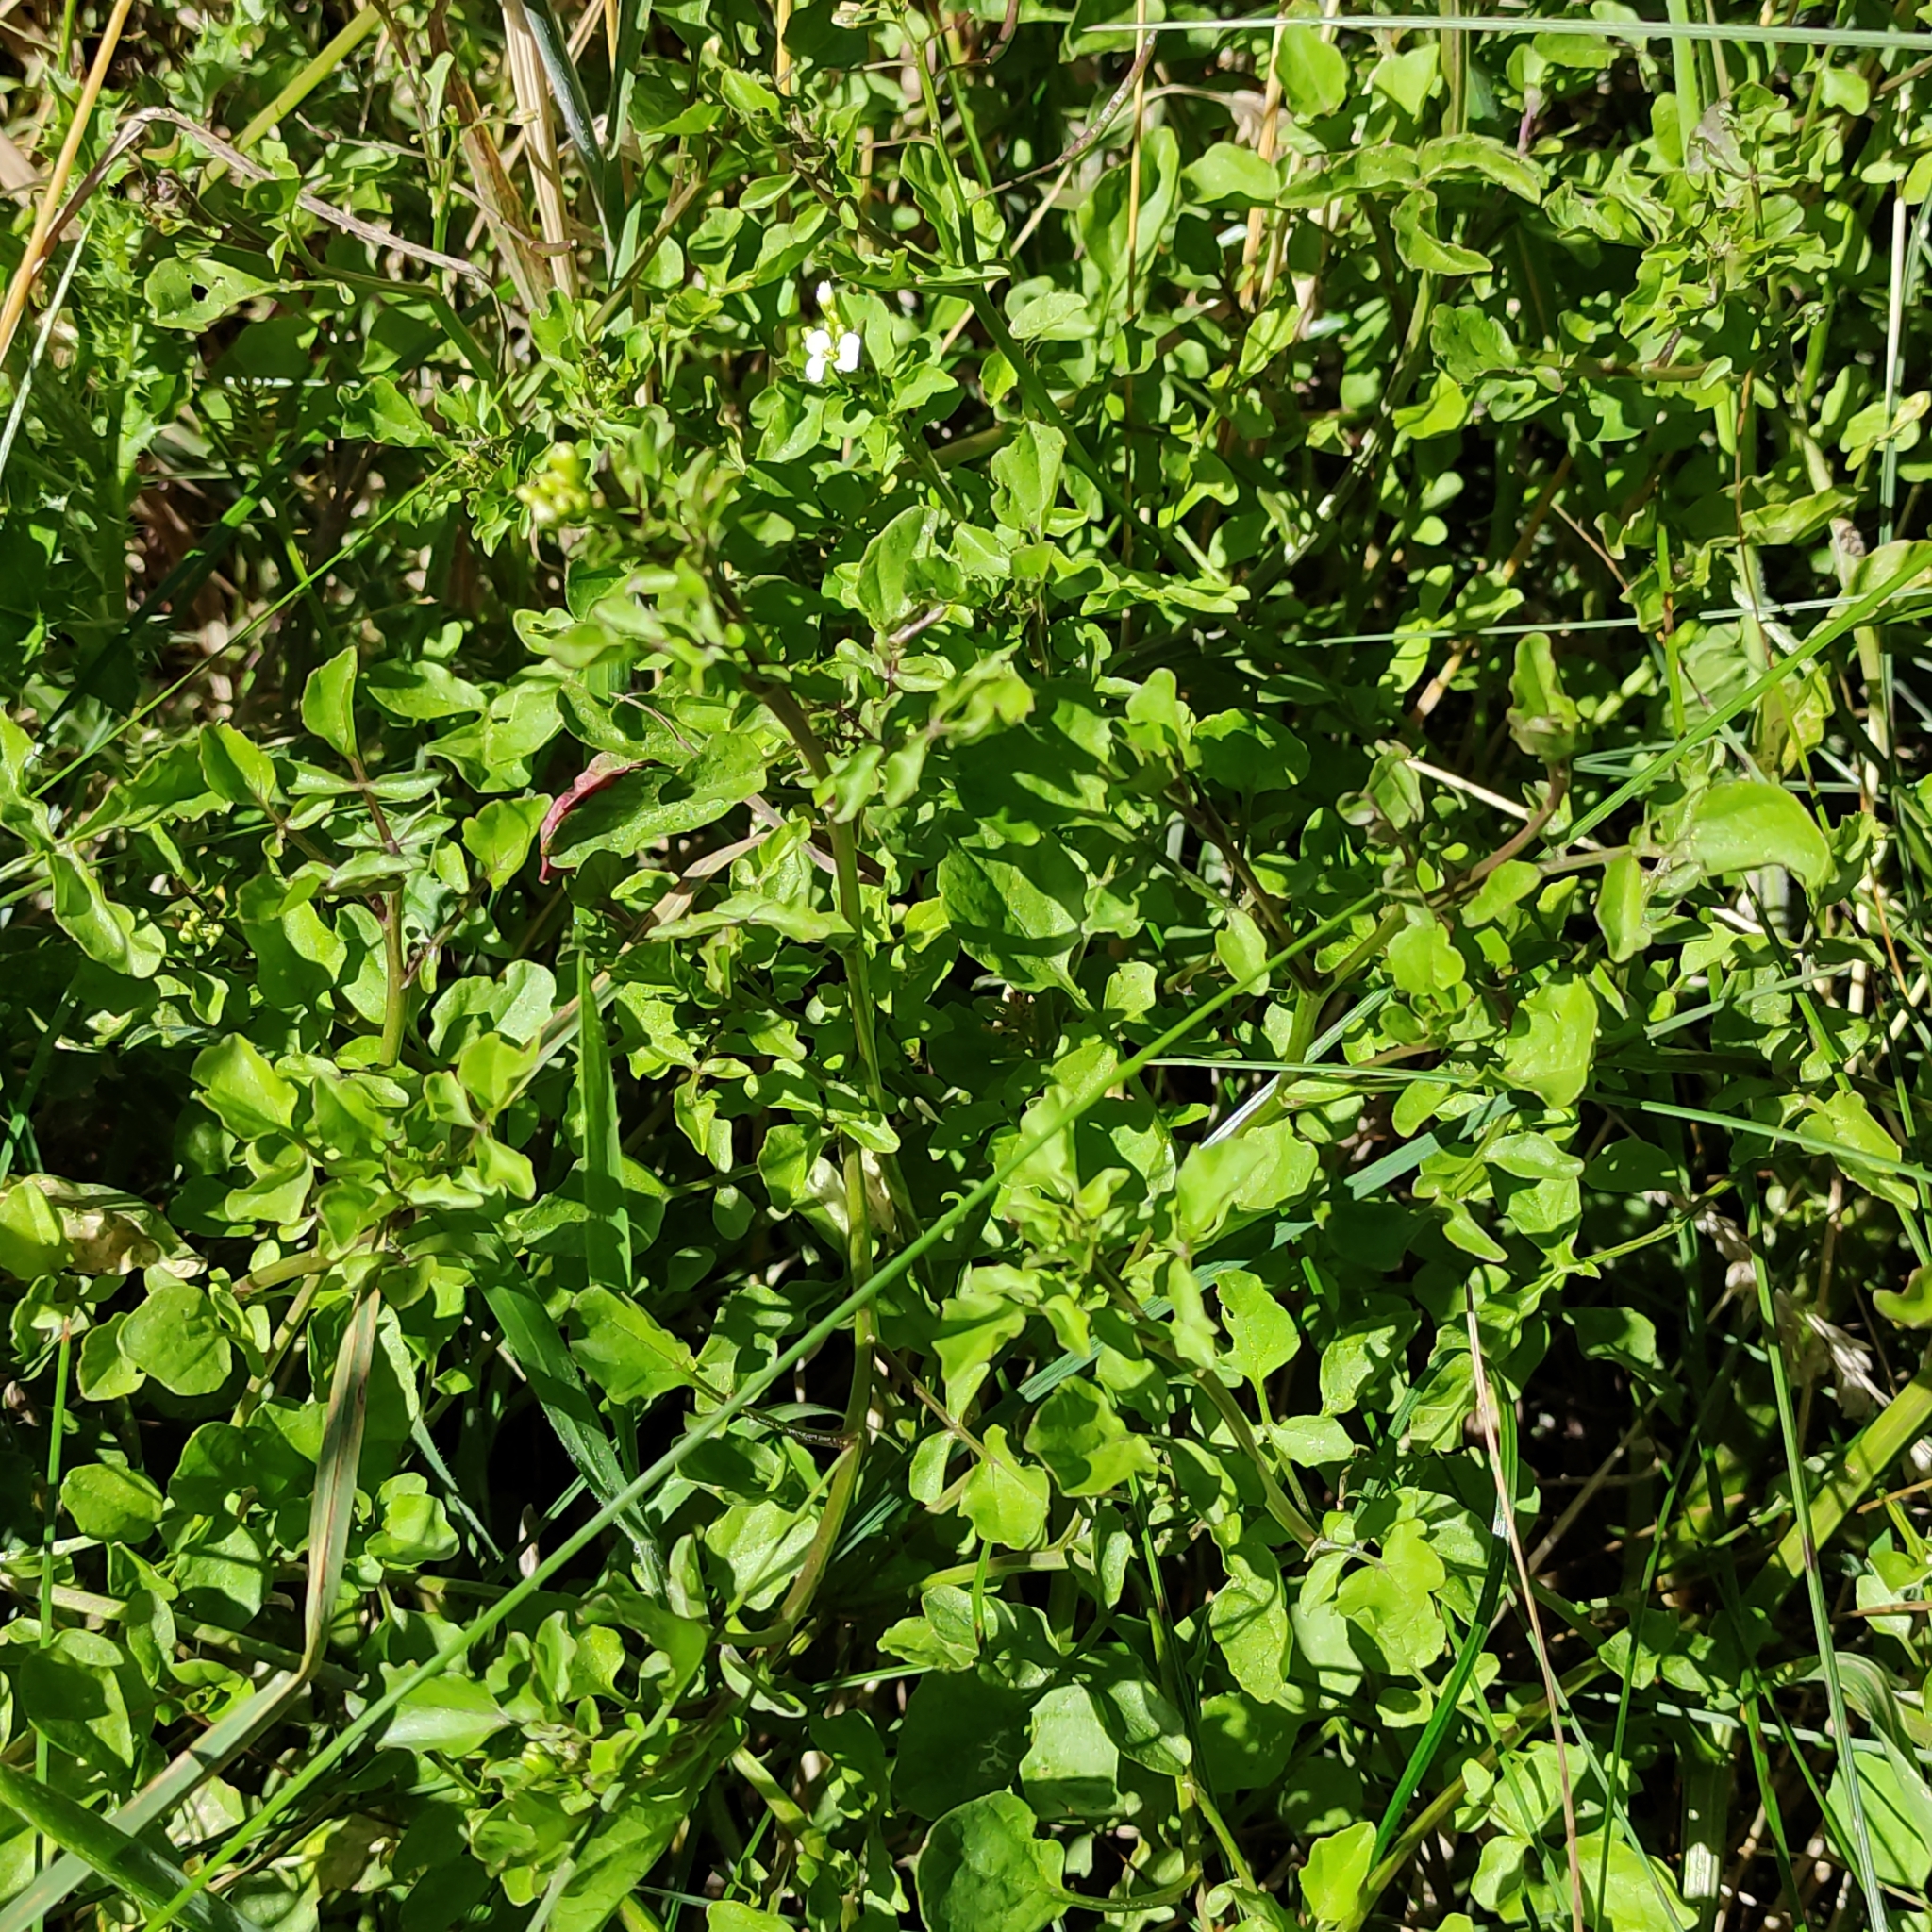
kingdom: Plantae
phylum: Tracheophyta
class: Magnoliopsida
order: Brassicales
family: Brassicaceae
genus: Nasturtium
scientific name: Nasturtium officinale
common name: Watercress
